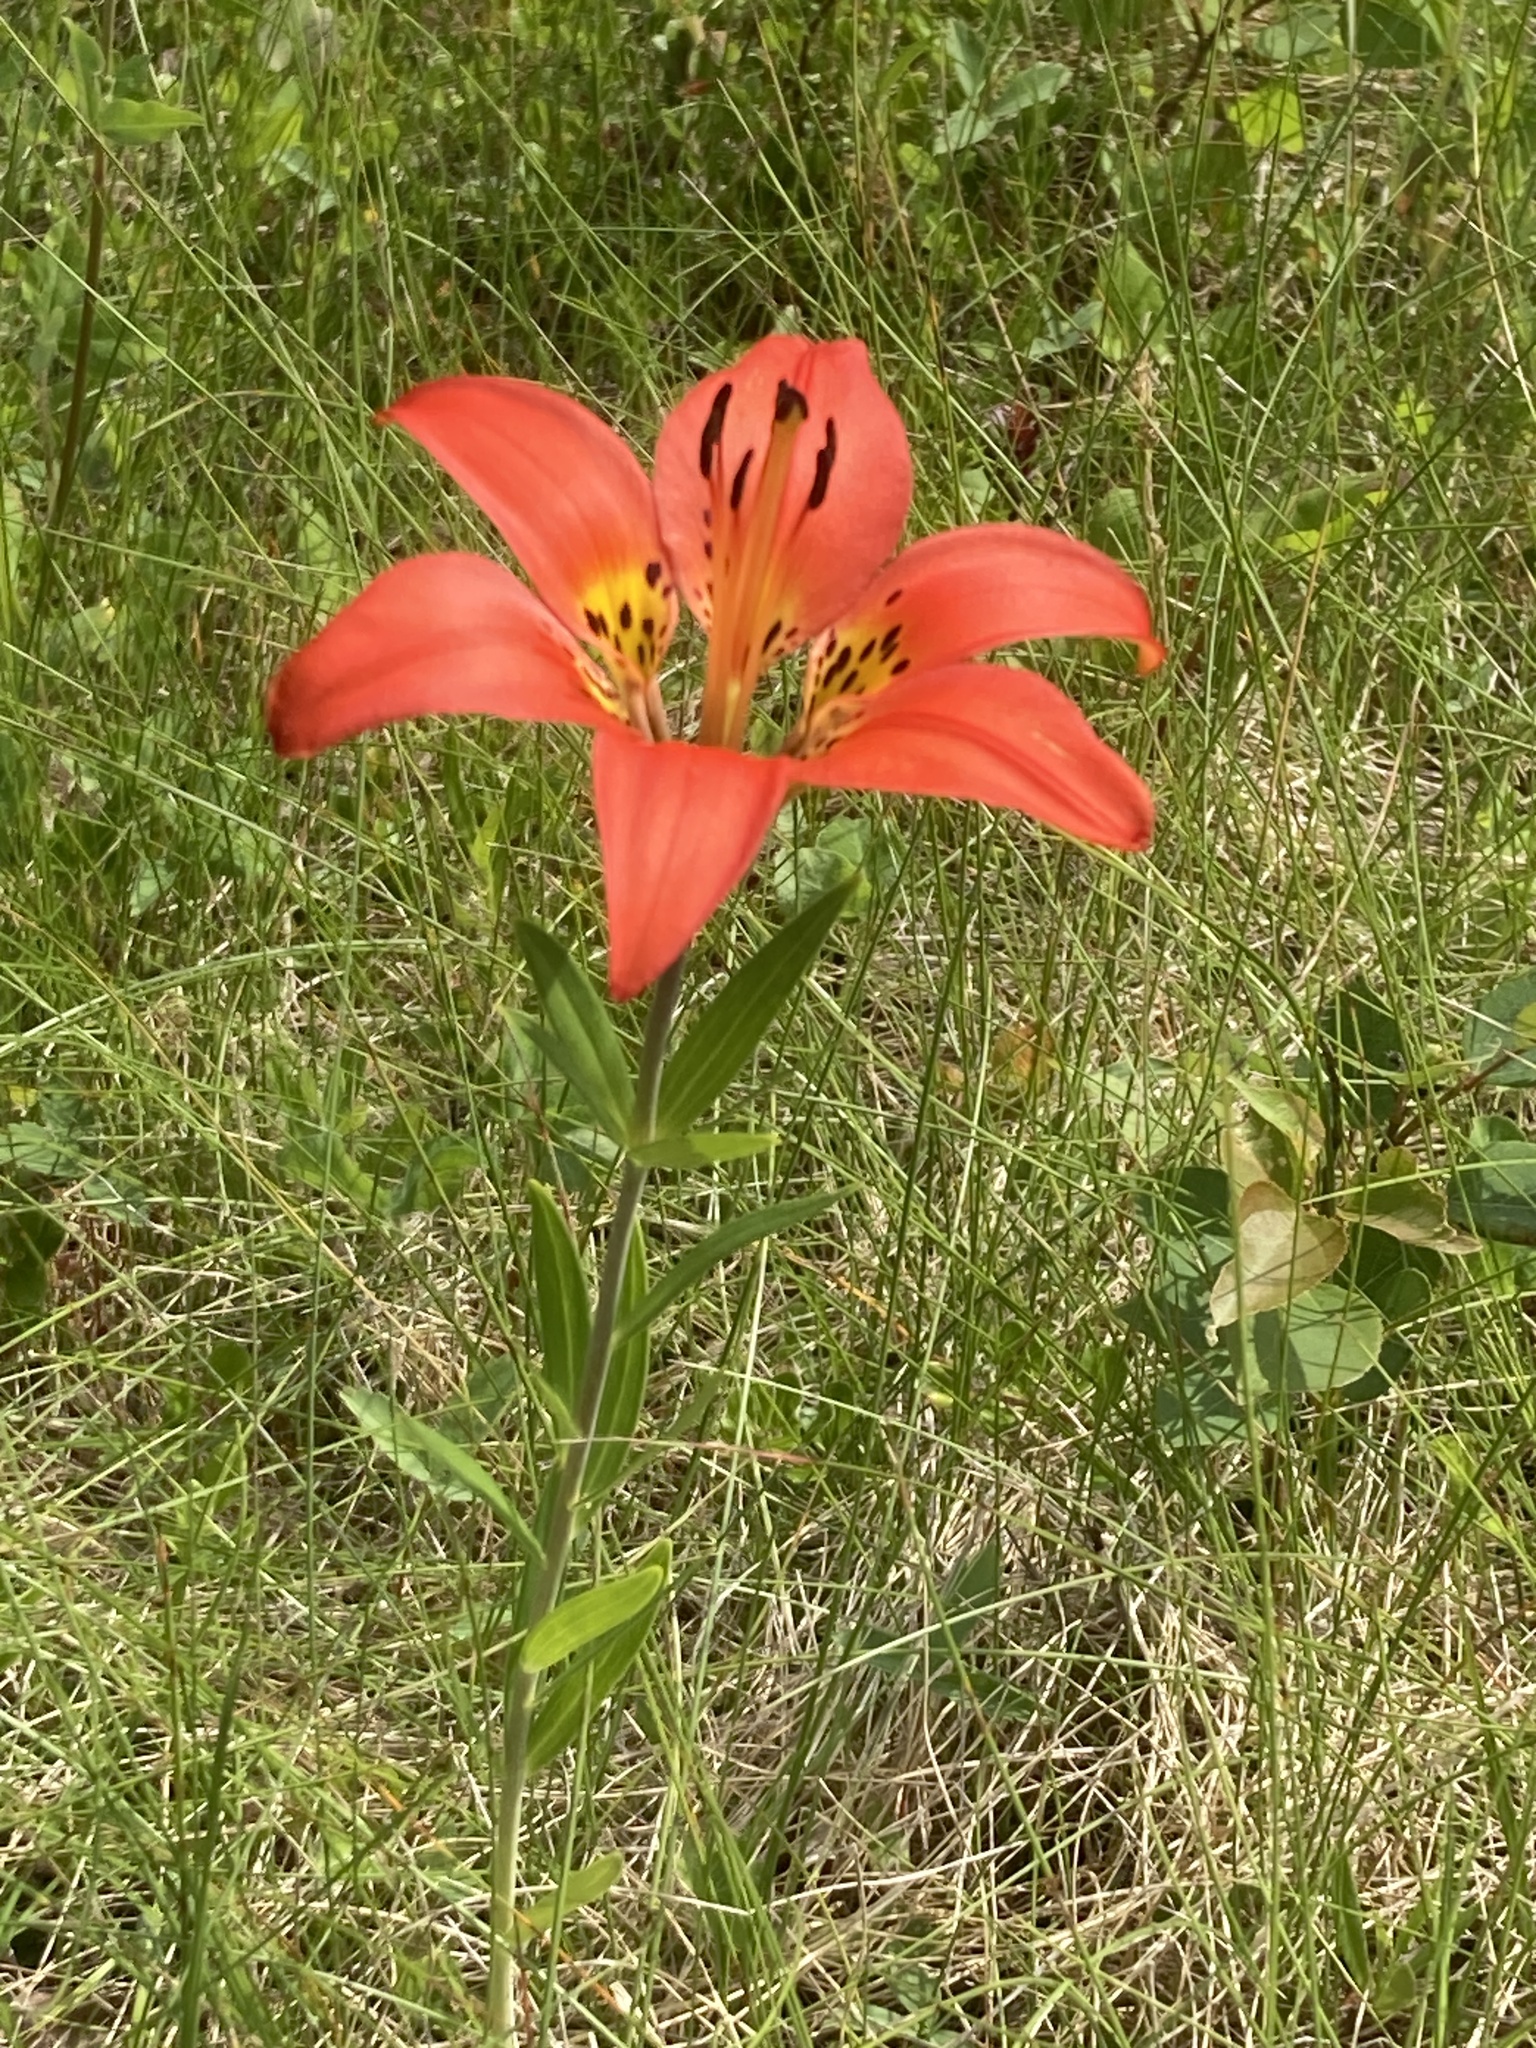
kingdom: Plantae
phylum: Tracheophyta
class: Liliopsida
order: Liliales
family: Liliaceae
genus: Lilium
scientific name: Lilium philadelphicum
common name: Red lily
